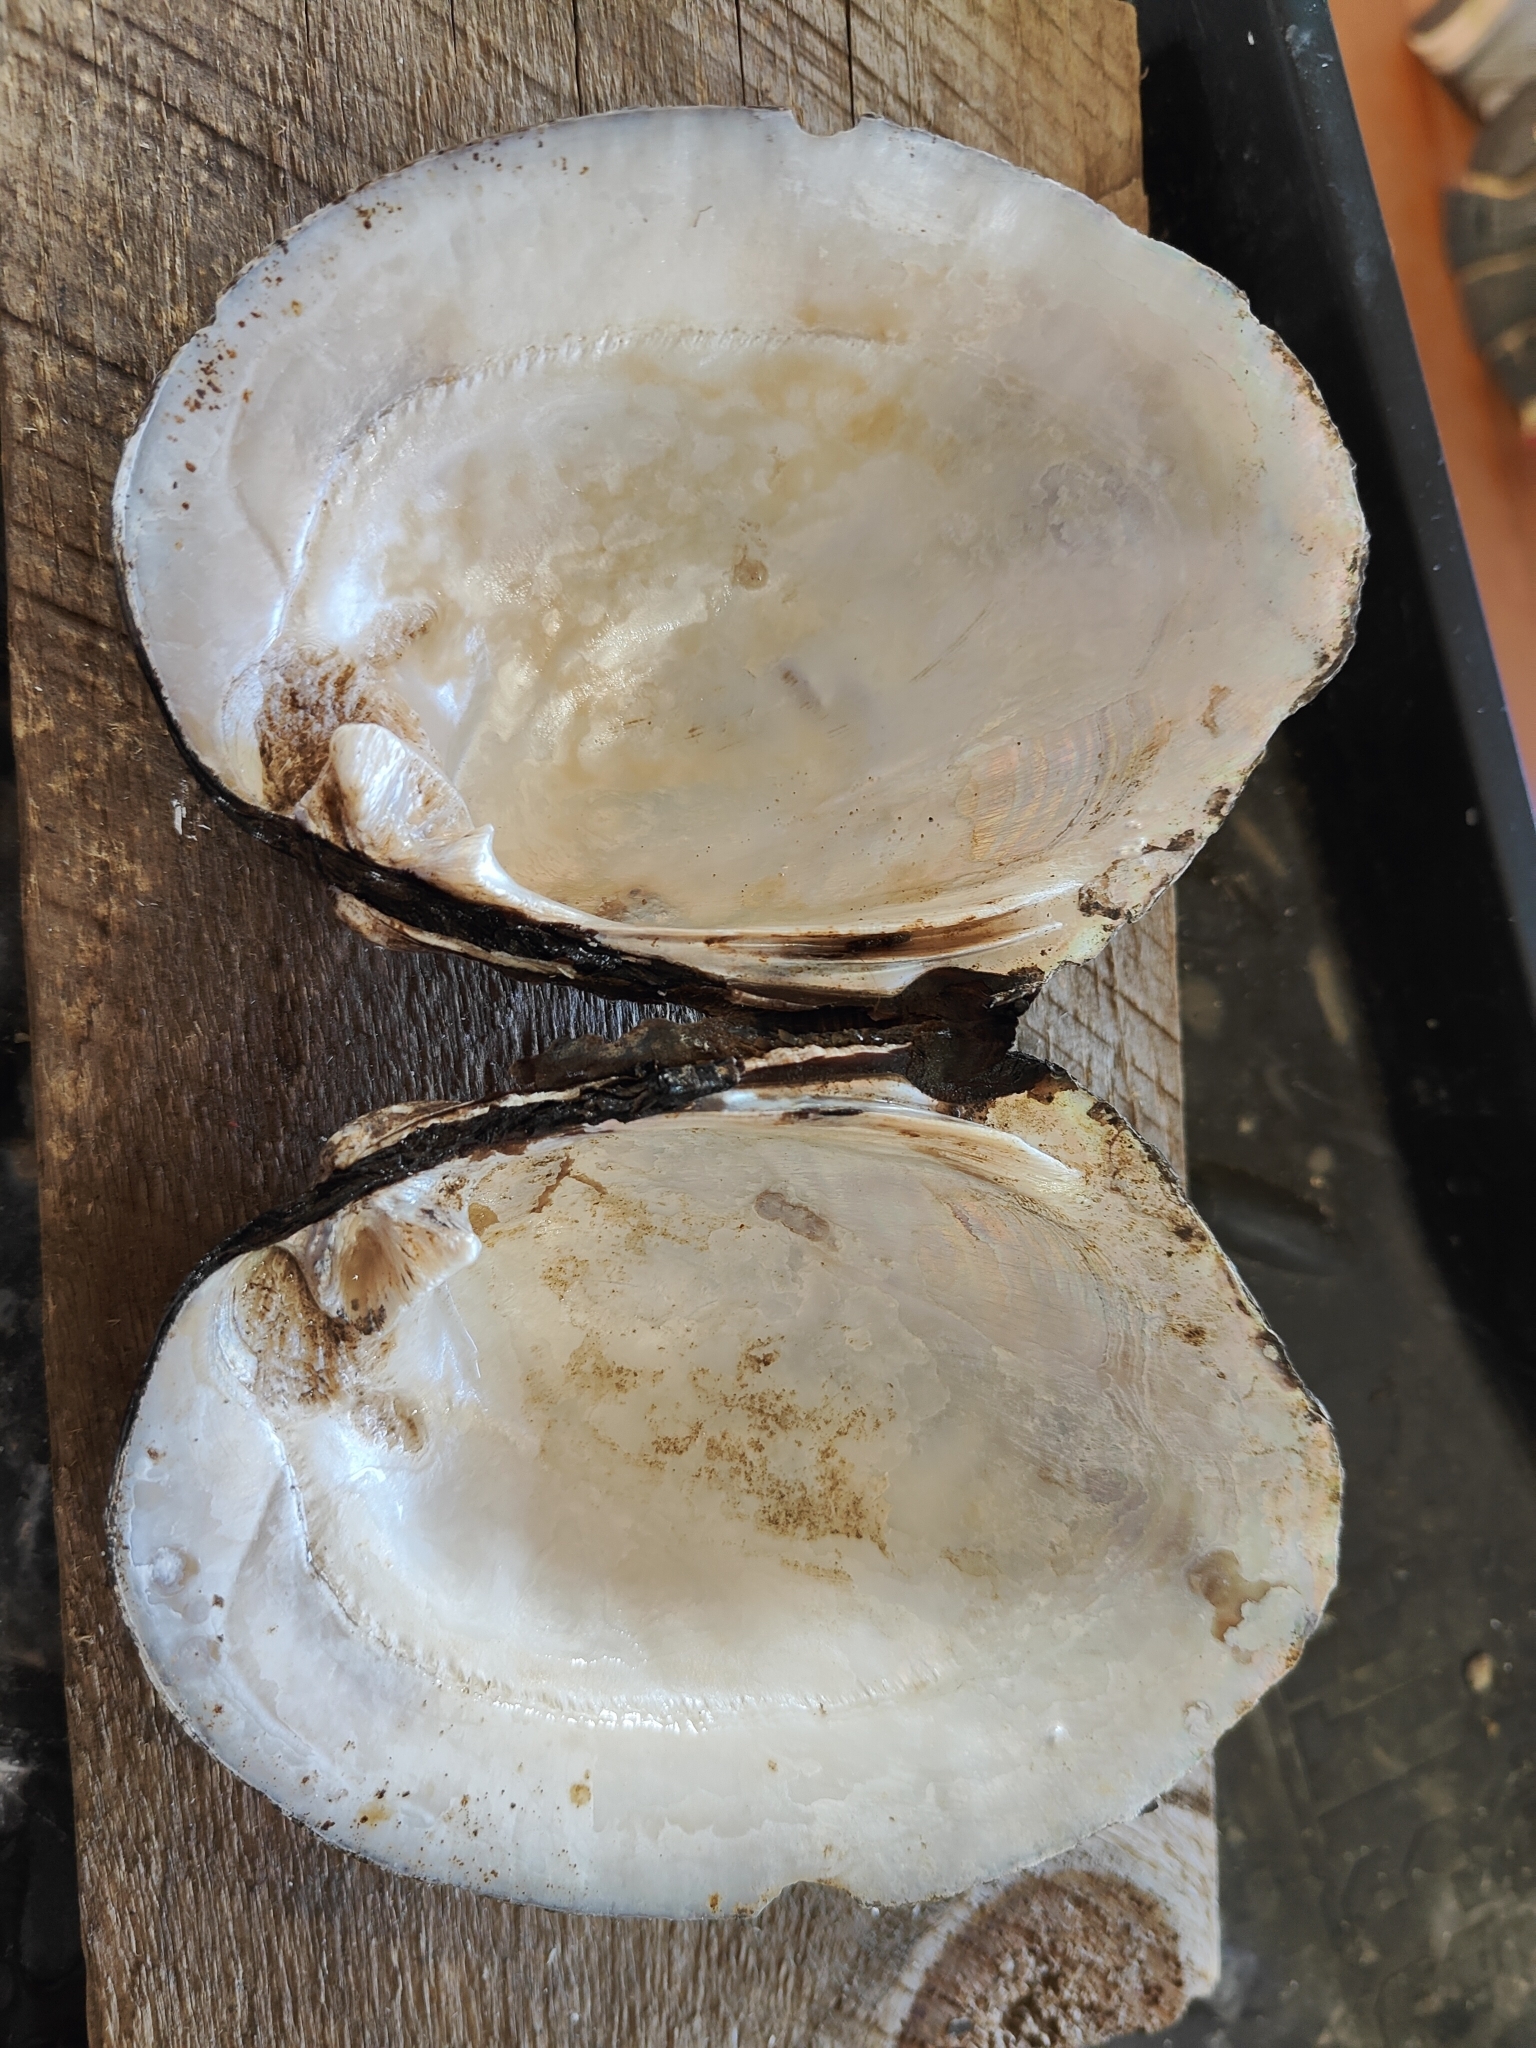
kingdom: Animalia
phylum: Mollusca
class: Bivalvia
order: Unionida
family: Unionidae
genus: Amblema
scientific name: Amblema plicata
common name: Threeridge
